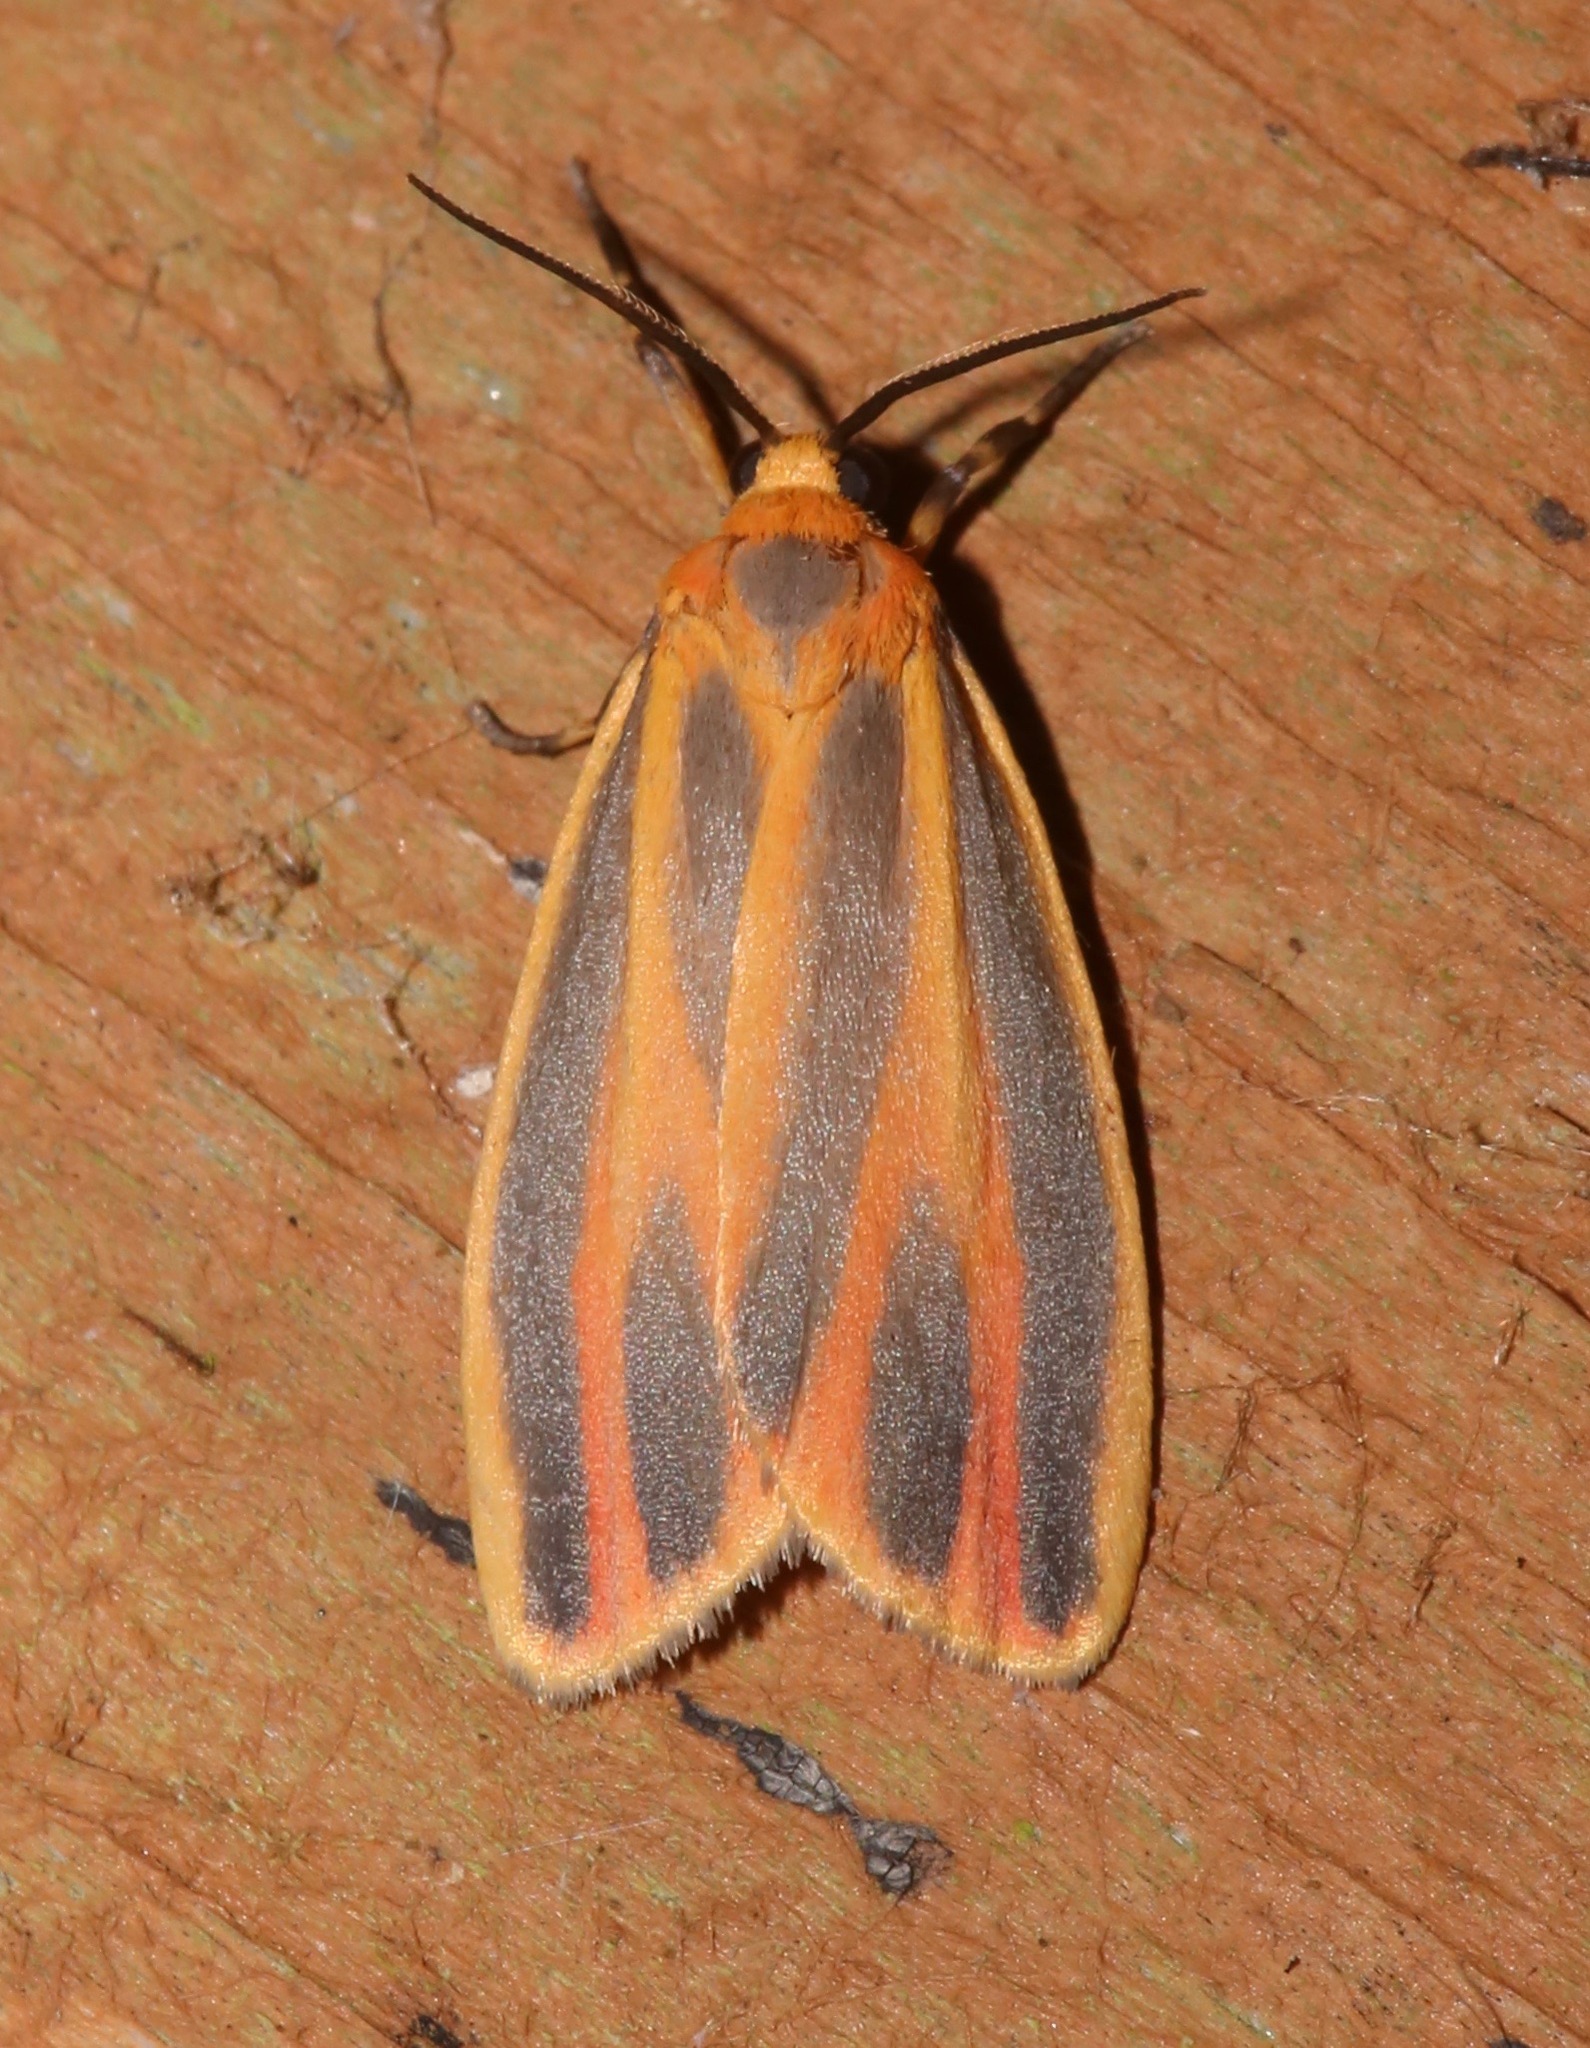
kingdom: Animalia
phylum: Arthropoda
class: Insecta
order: Lepidoptera
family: Erebidae
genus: Hypoprepia
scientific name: Hypoprepia fucosa
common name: Painted lichen moth
